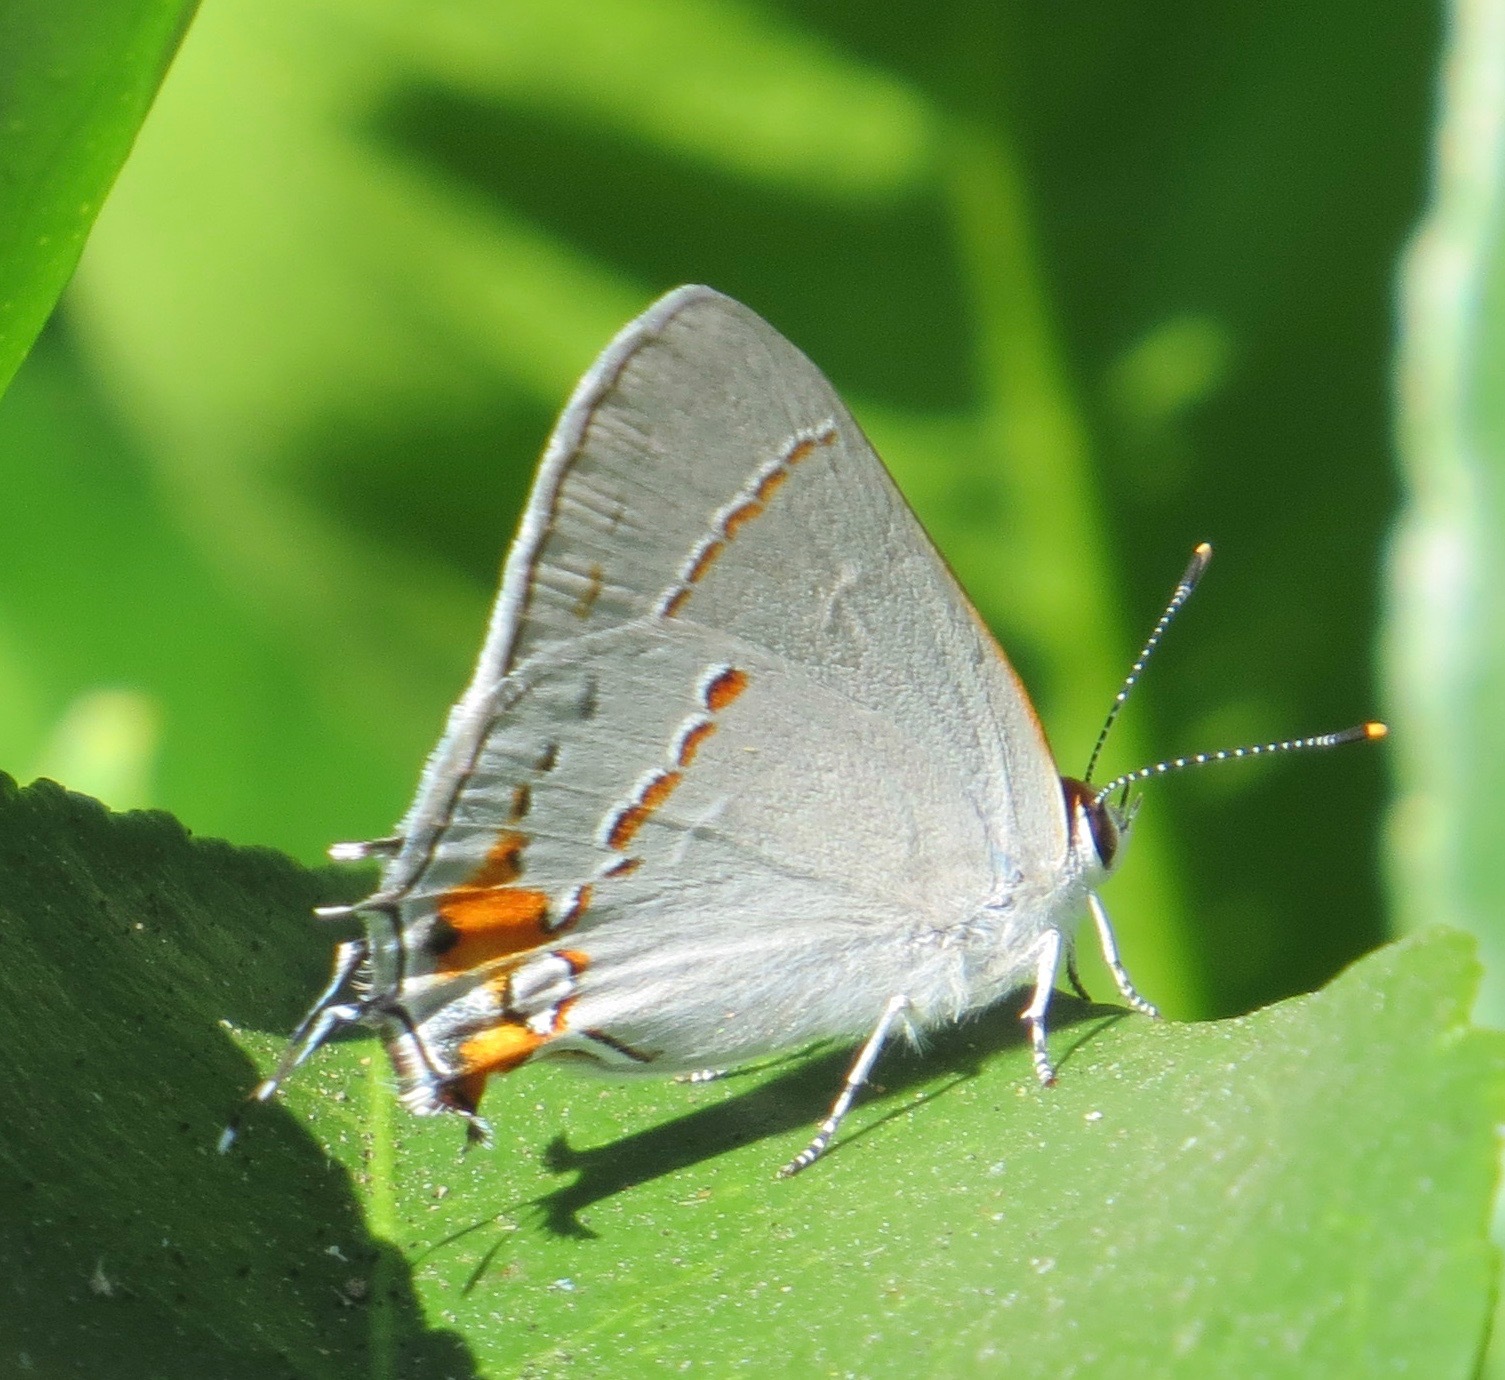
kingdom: Animalia
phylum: Arthropoda
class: Insecta
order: Lepidoptera
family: Lycaenidae
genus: Strymon
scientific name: Strymon melinus
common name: Gray hairstreak
